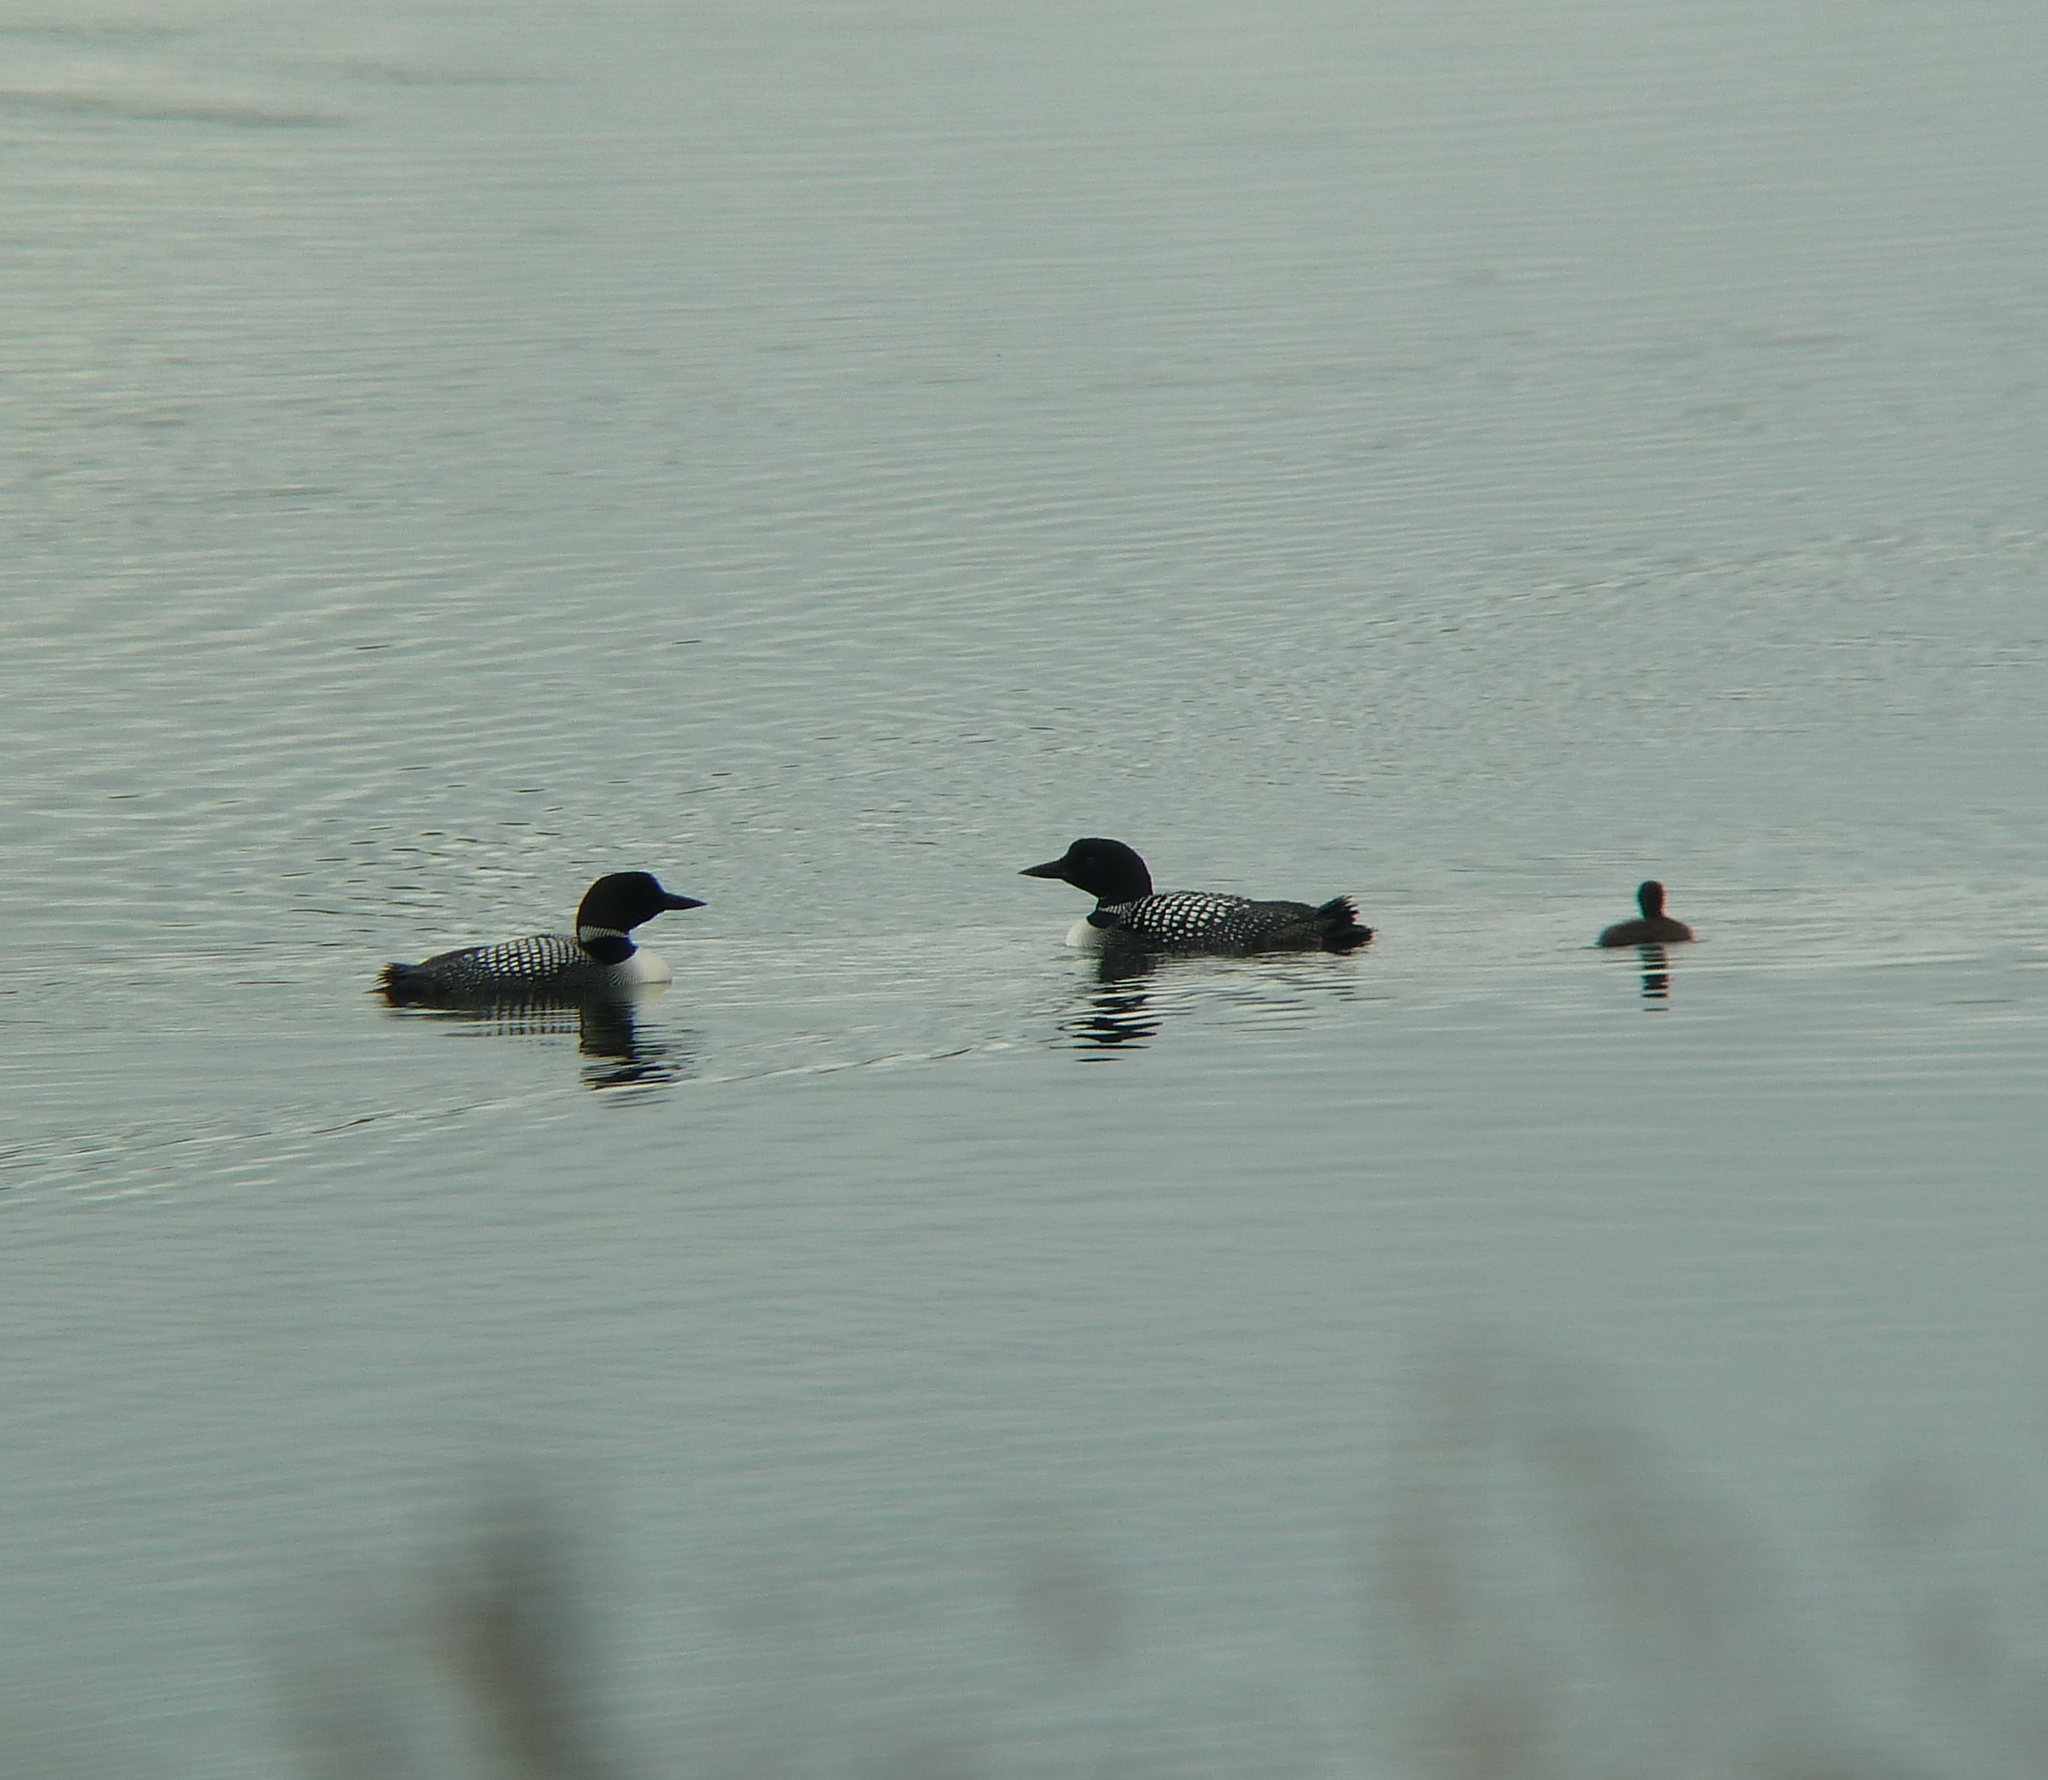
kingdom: Animalia
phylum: Chordata
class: Aves
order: Gaviiformes
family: Gaviidae
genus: Gavia
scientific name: Gavia immer
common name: Common loon
